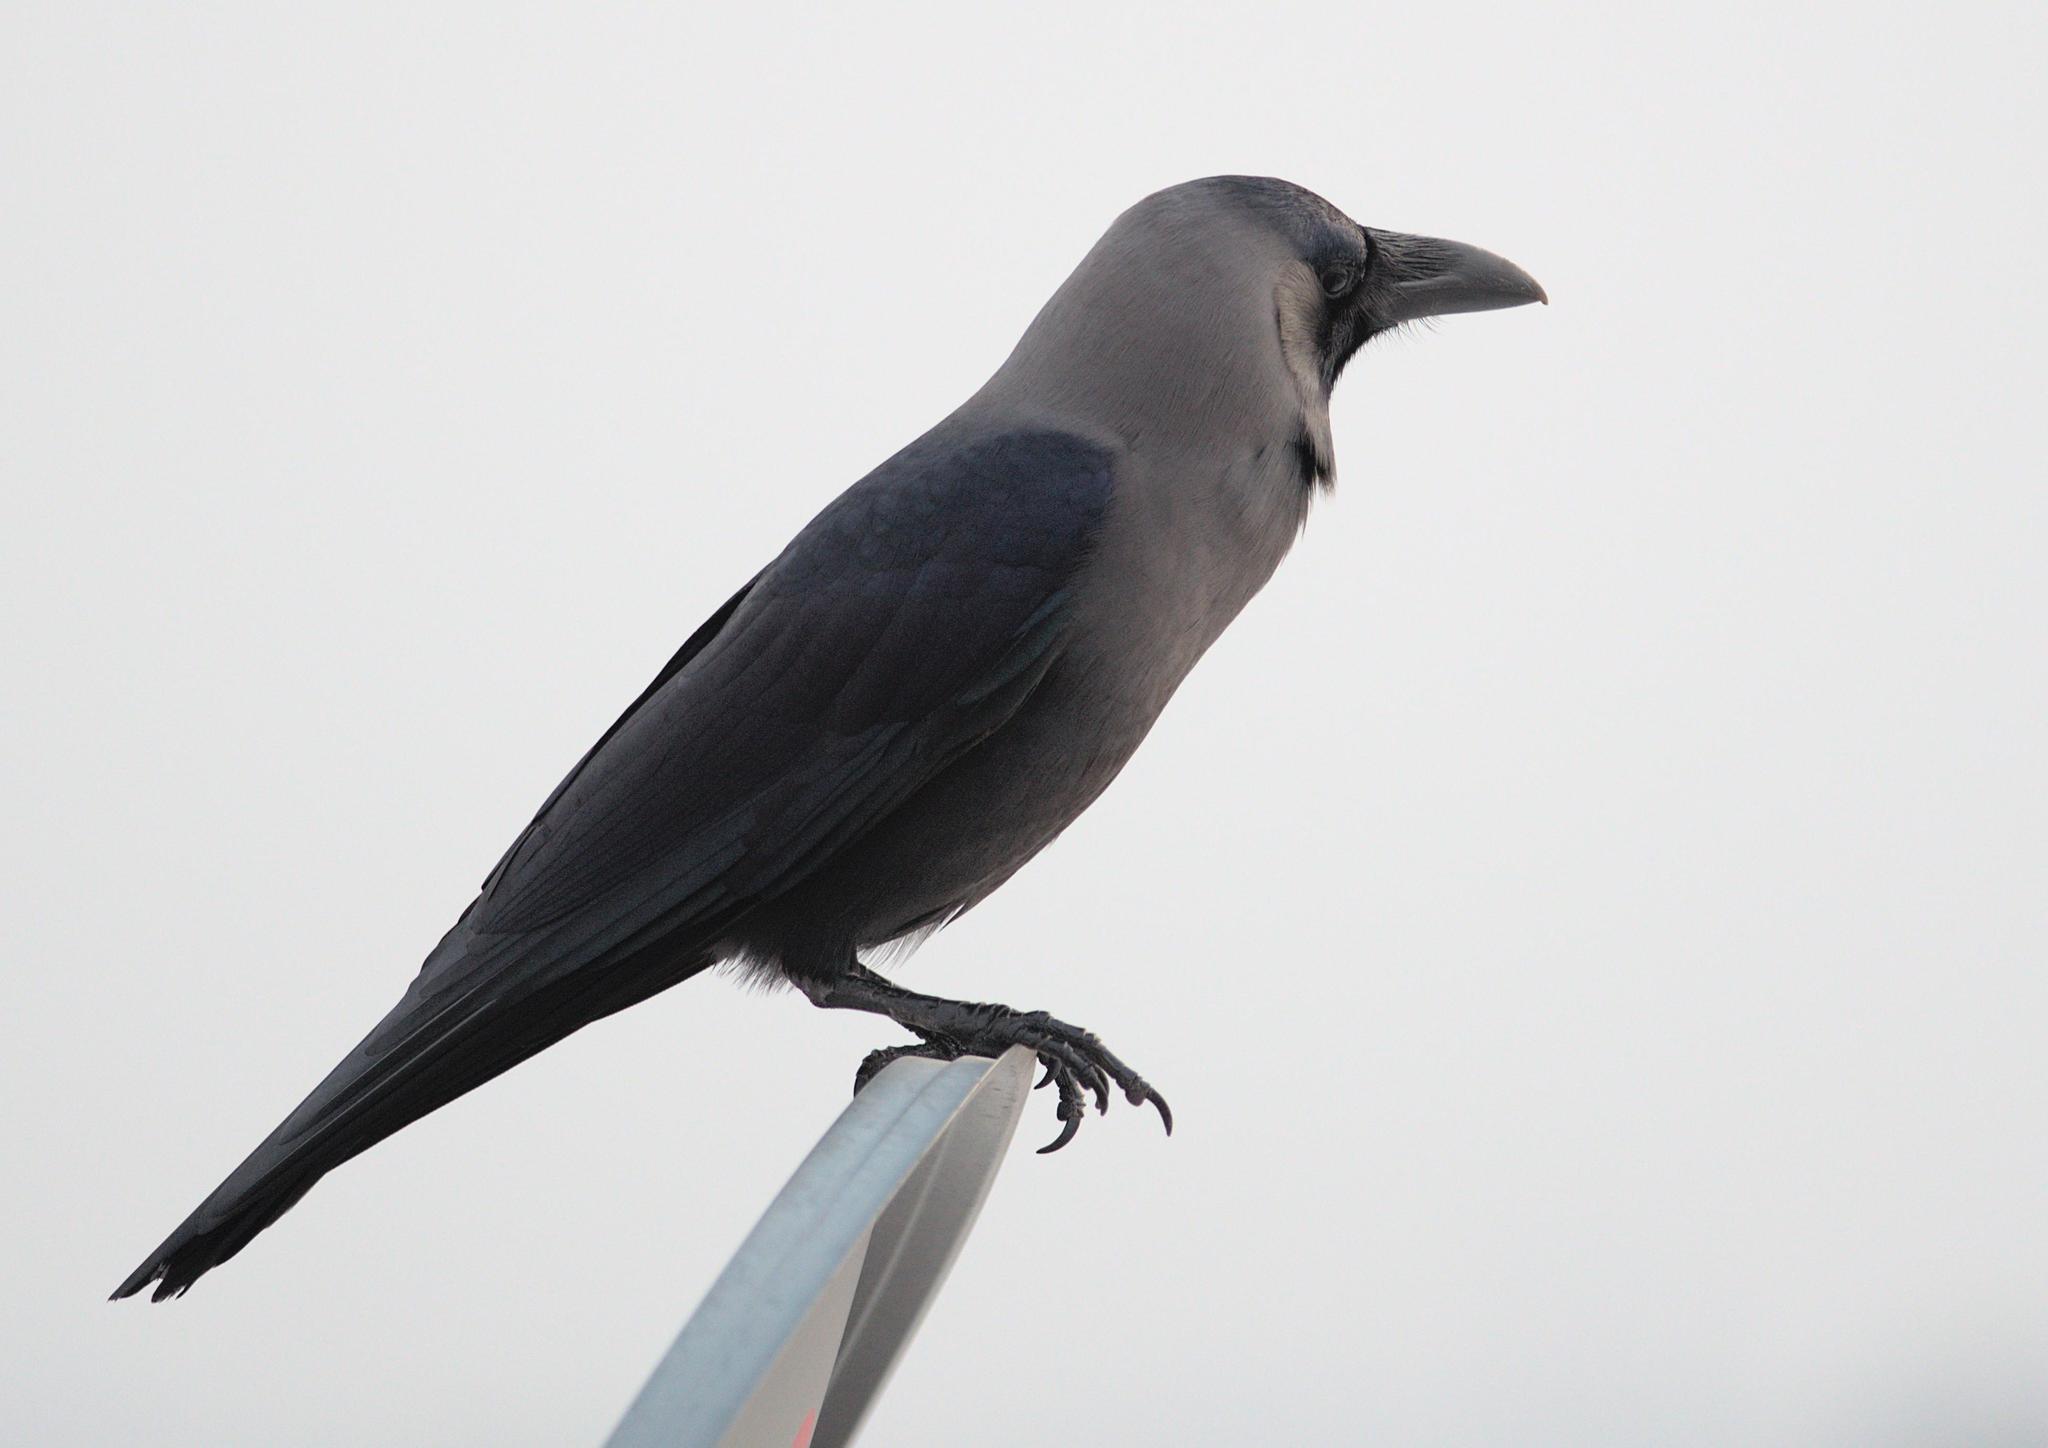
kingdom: Animalia
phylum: Chordata
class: Aves
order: Passeriformes
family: Corvidae
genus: Corvus
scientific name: Corvus splendens
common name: House crow
